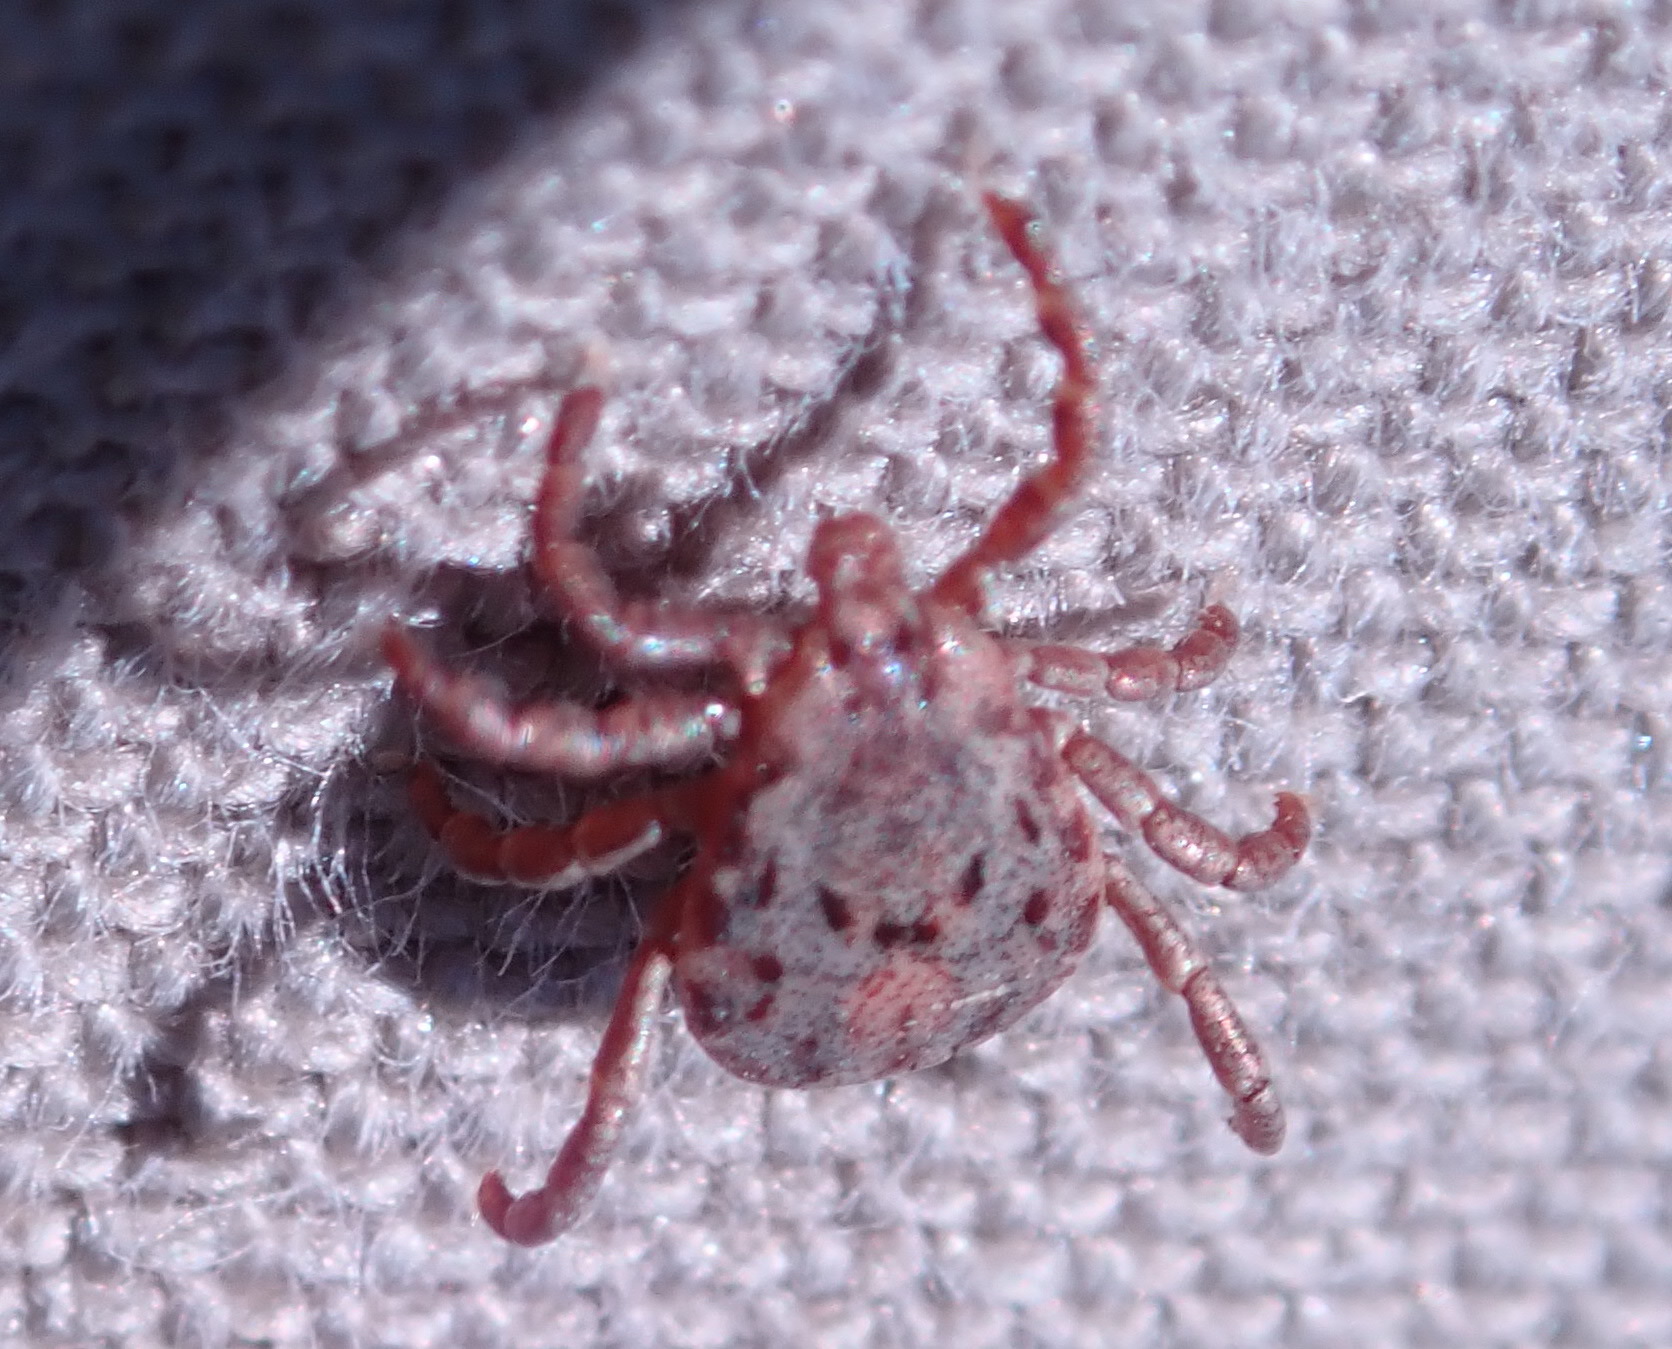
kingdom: Animalia
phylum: Arthropoda
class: Arachnida
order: Ixodida
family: Ixodidae
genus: Dermacentor
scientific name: Dermacentor occidentalis
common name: Net tick
